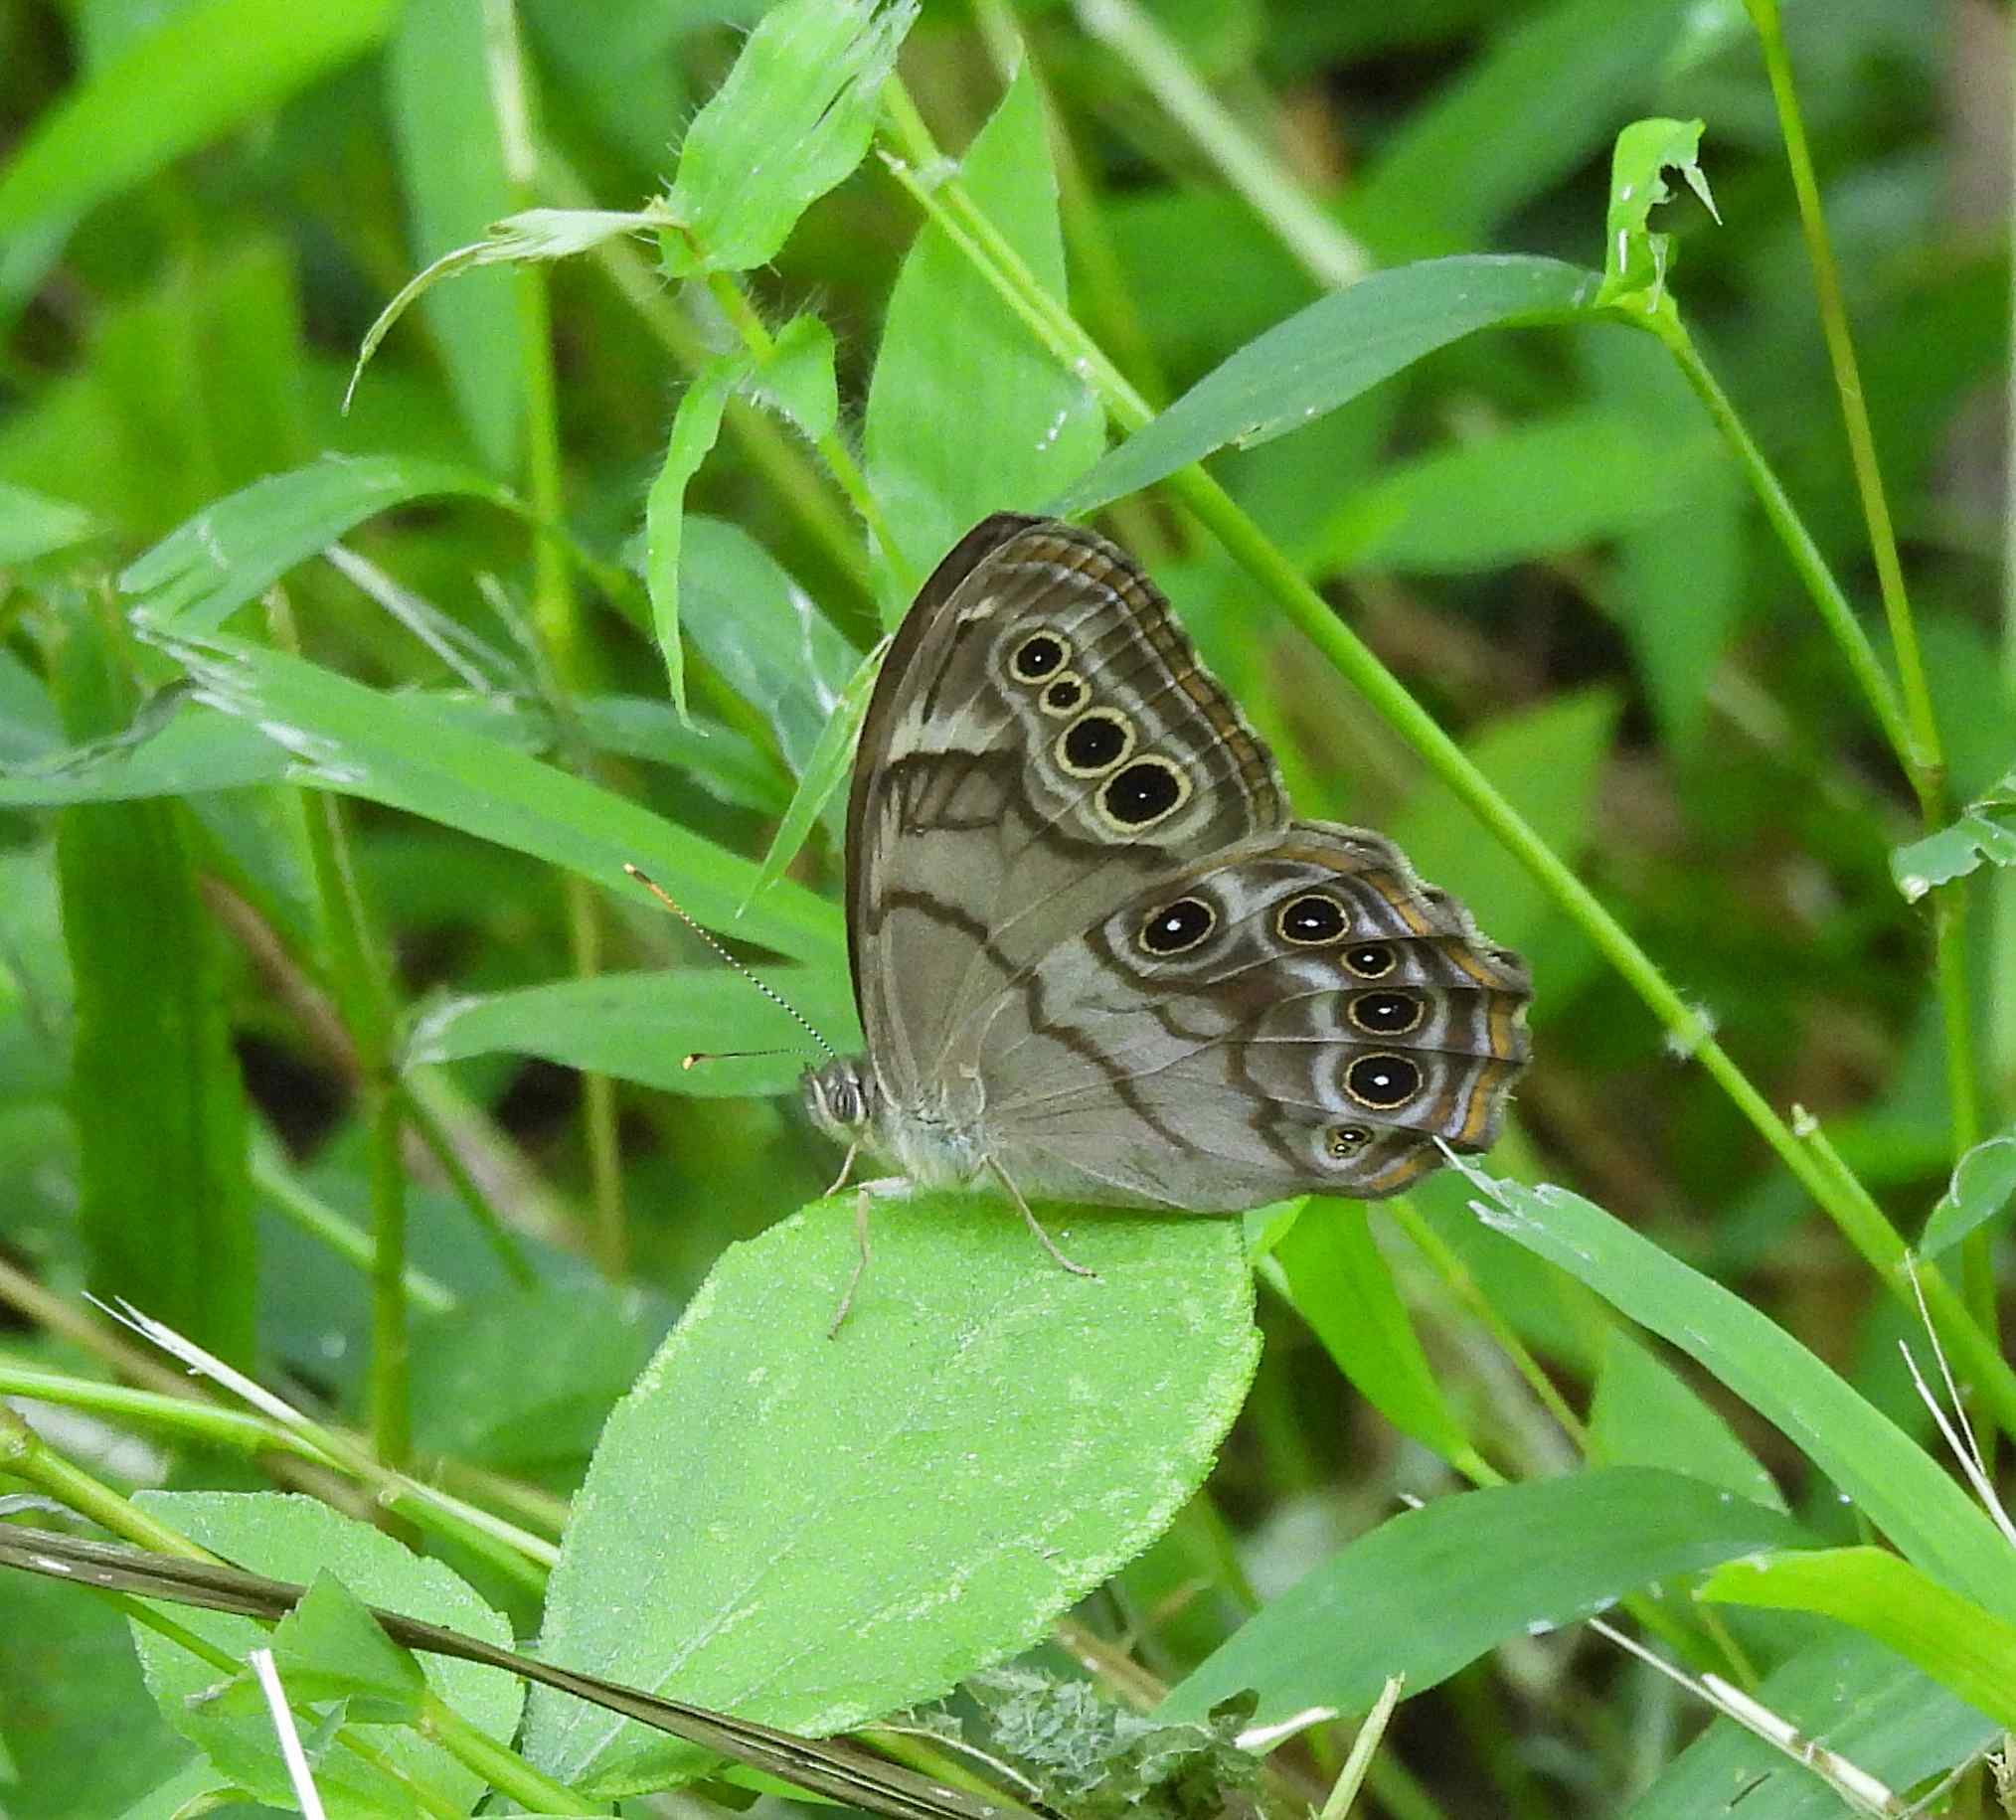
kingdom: Animalia
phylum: Arthropoda
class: Insecta
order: Lepidoptera
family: Nymphalidae
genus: Lethe
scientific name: Lethe anthedon
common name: Northern pearly-eye
